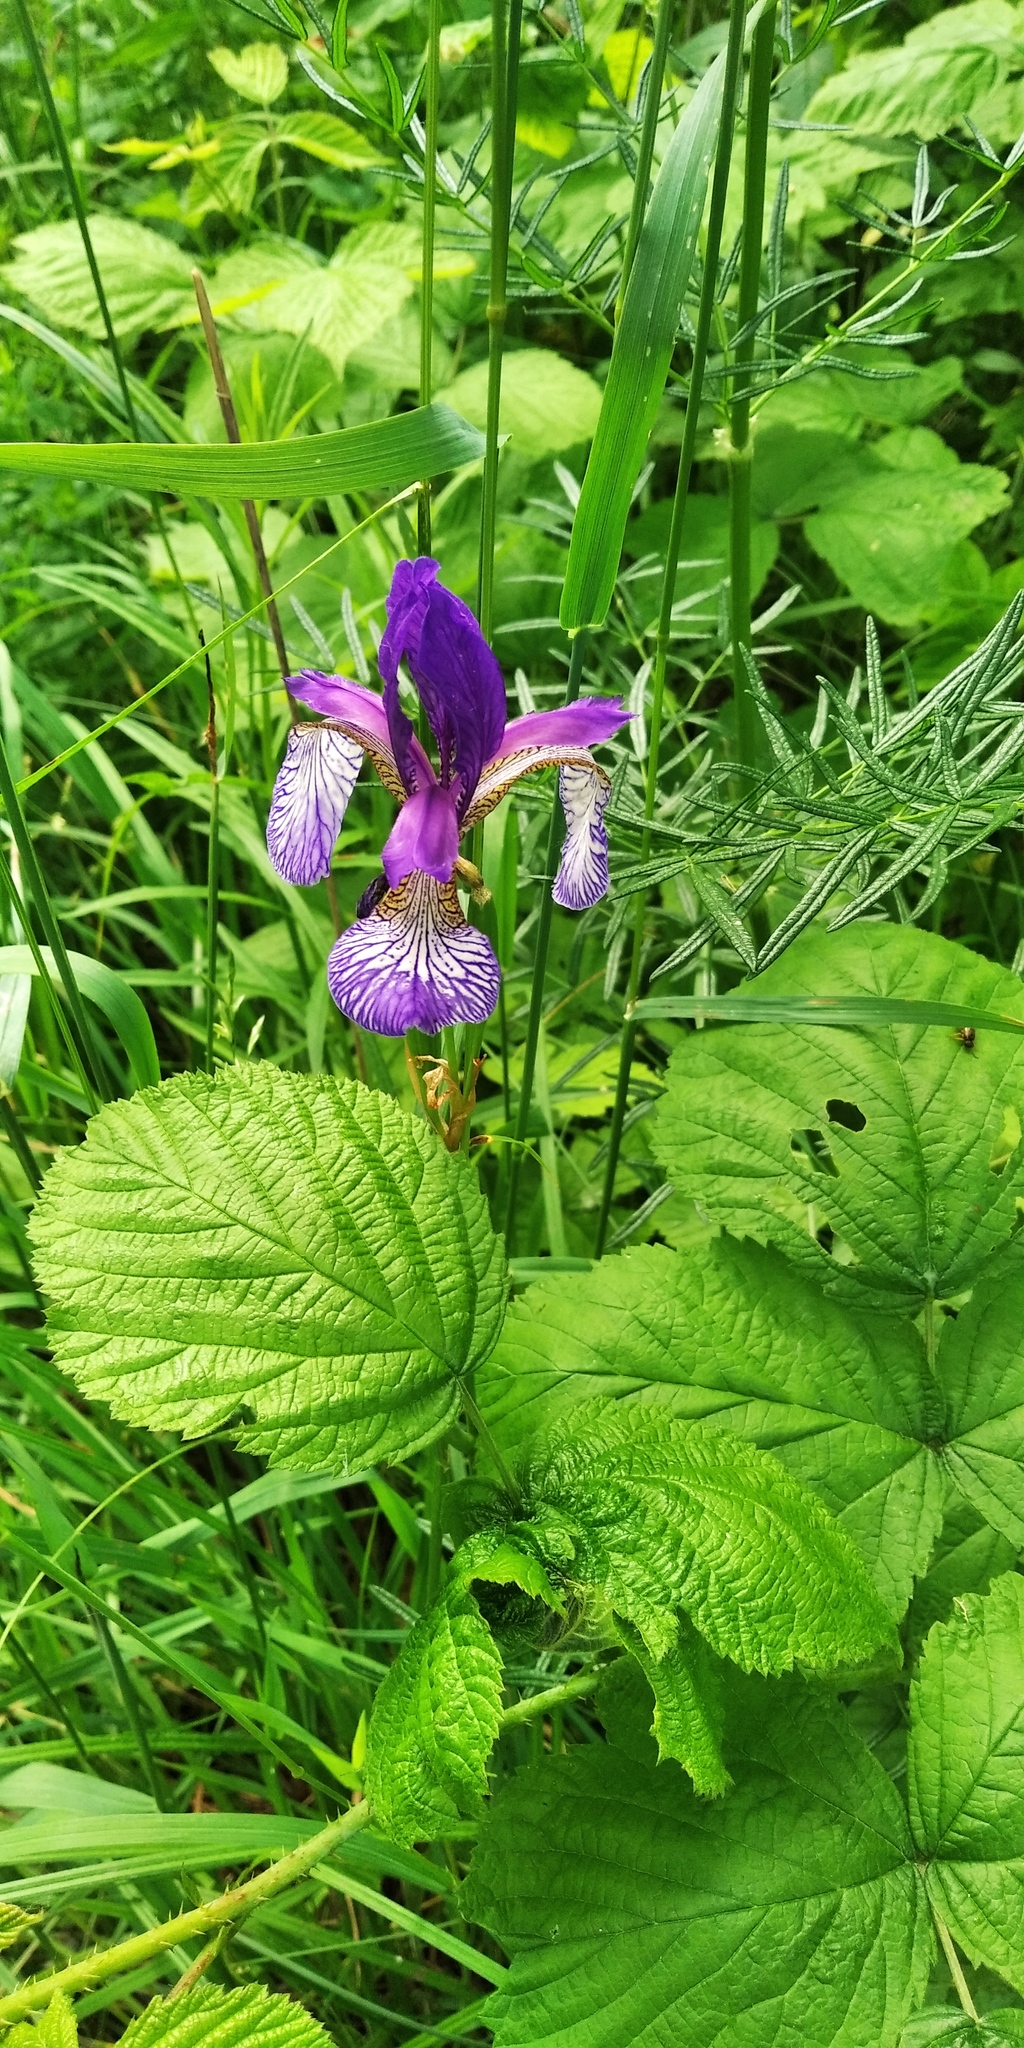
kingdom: Plantae
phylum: Tracheophyta
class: Liliopsida
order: Asparagales
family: Iridaceae
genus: Iris
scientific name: Iris sibirica
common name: Siberian iris
